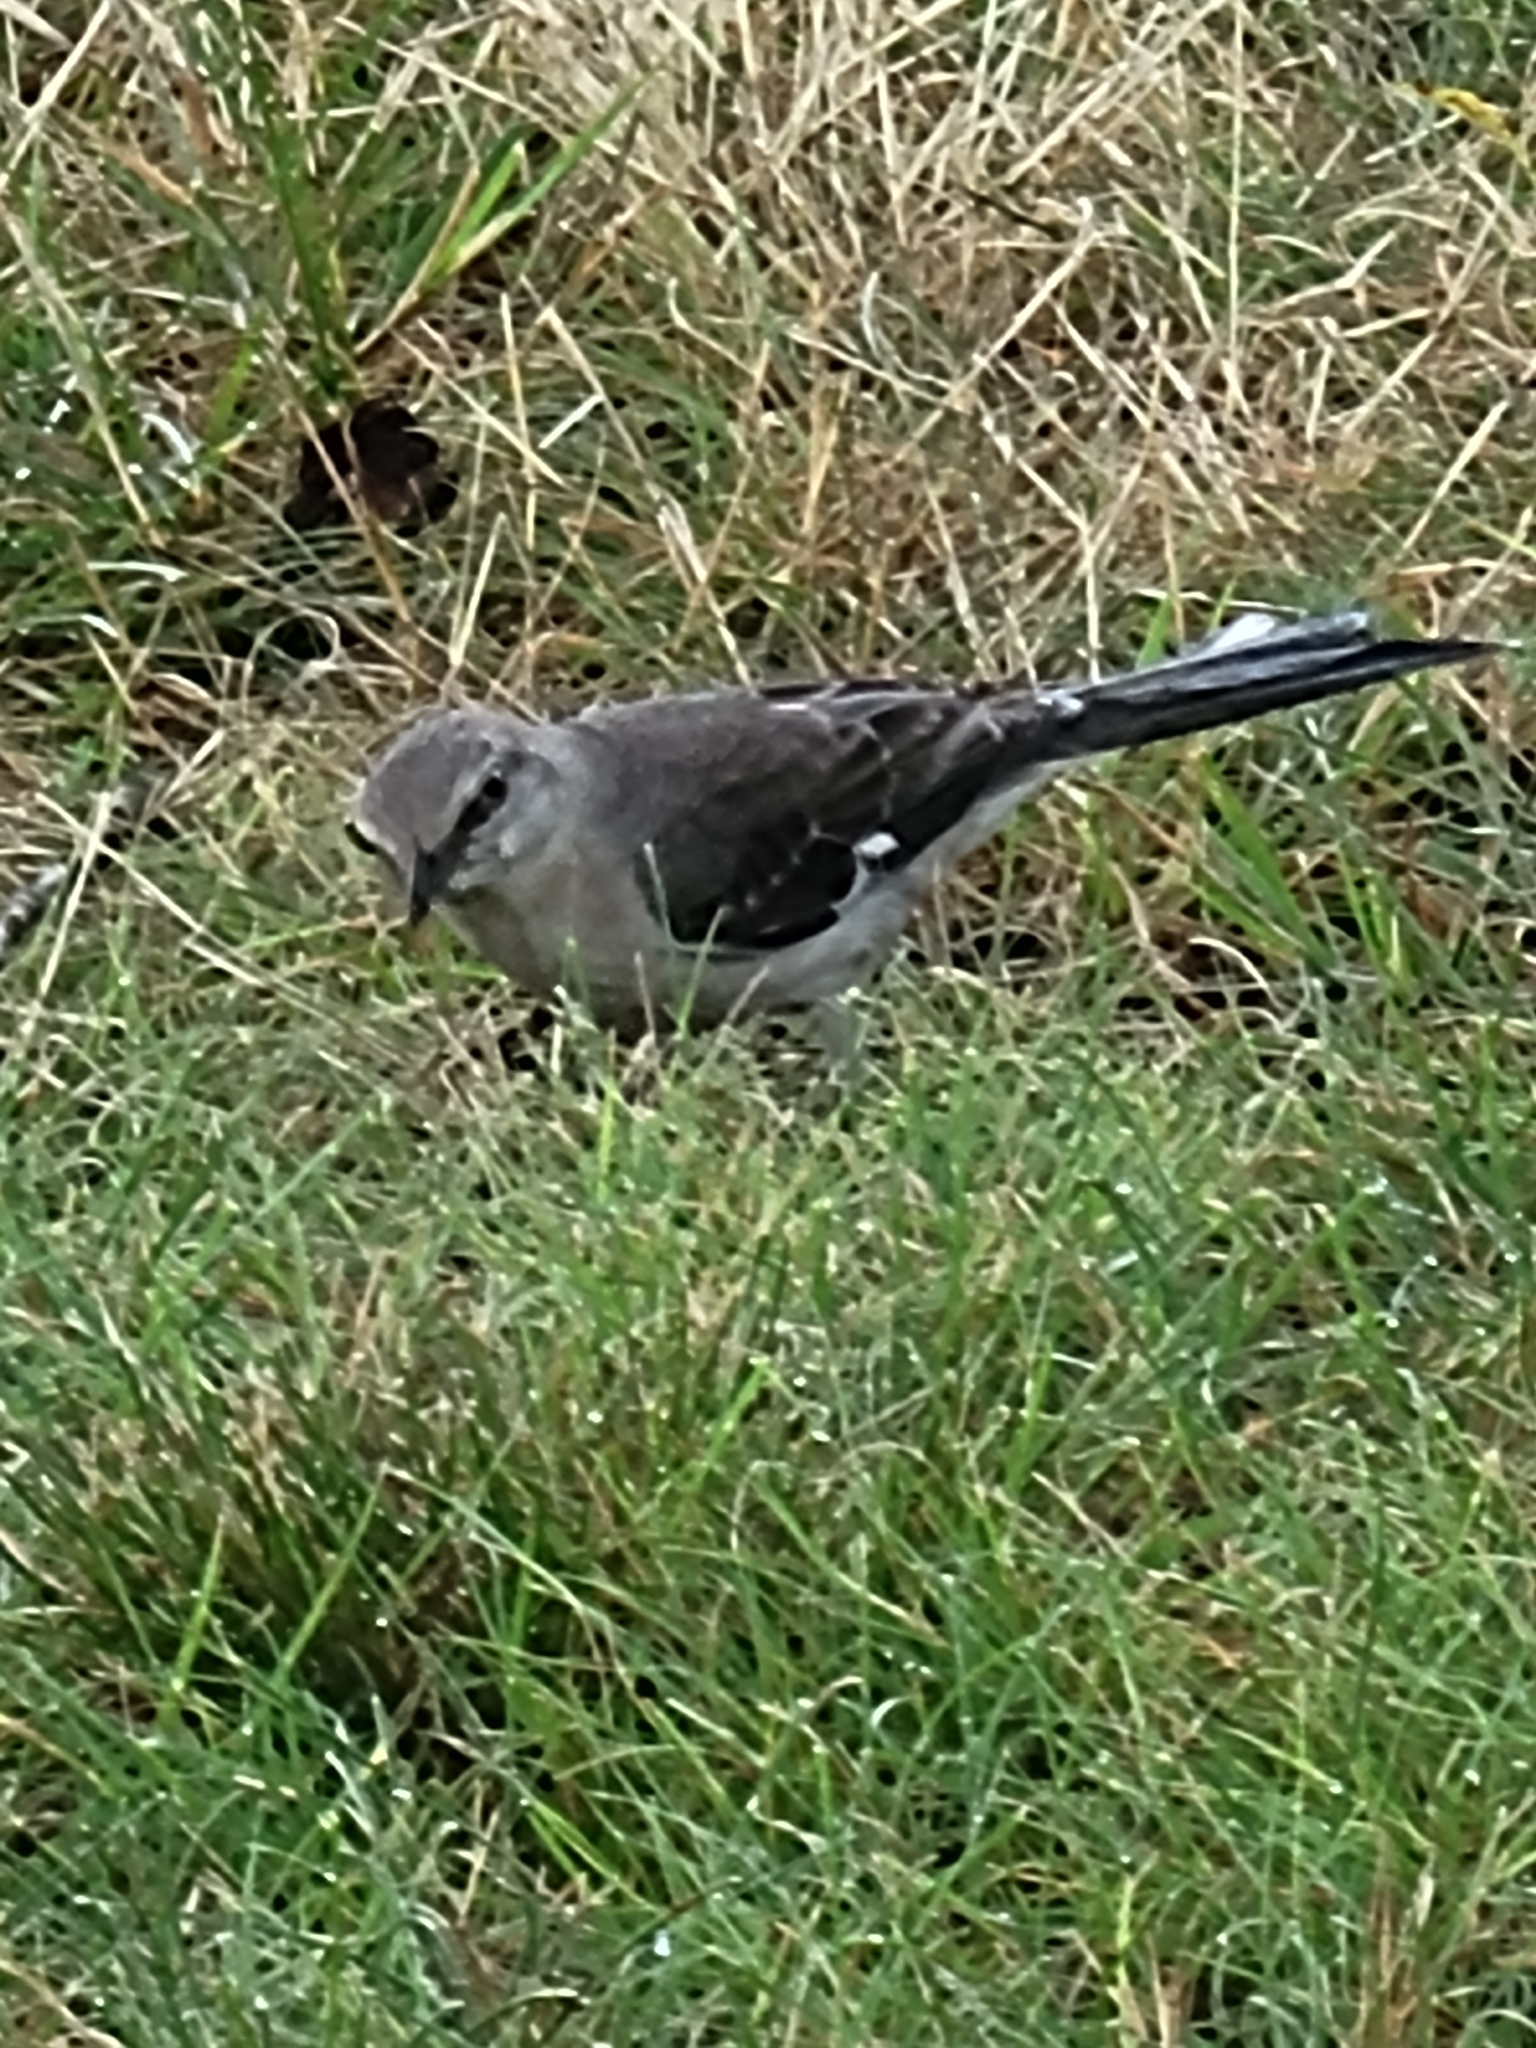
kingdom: Animalia
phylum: Chordata
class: Aves
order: Passeriformes
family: Mimidae
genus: Mimus
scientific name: Mimus polyglottos
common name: Northern mockingbird
